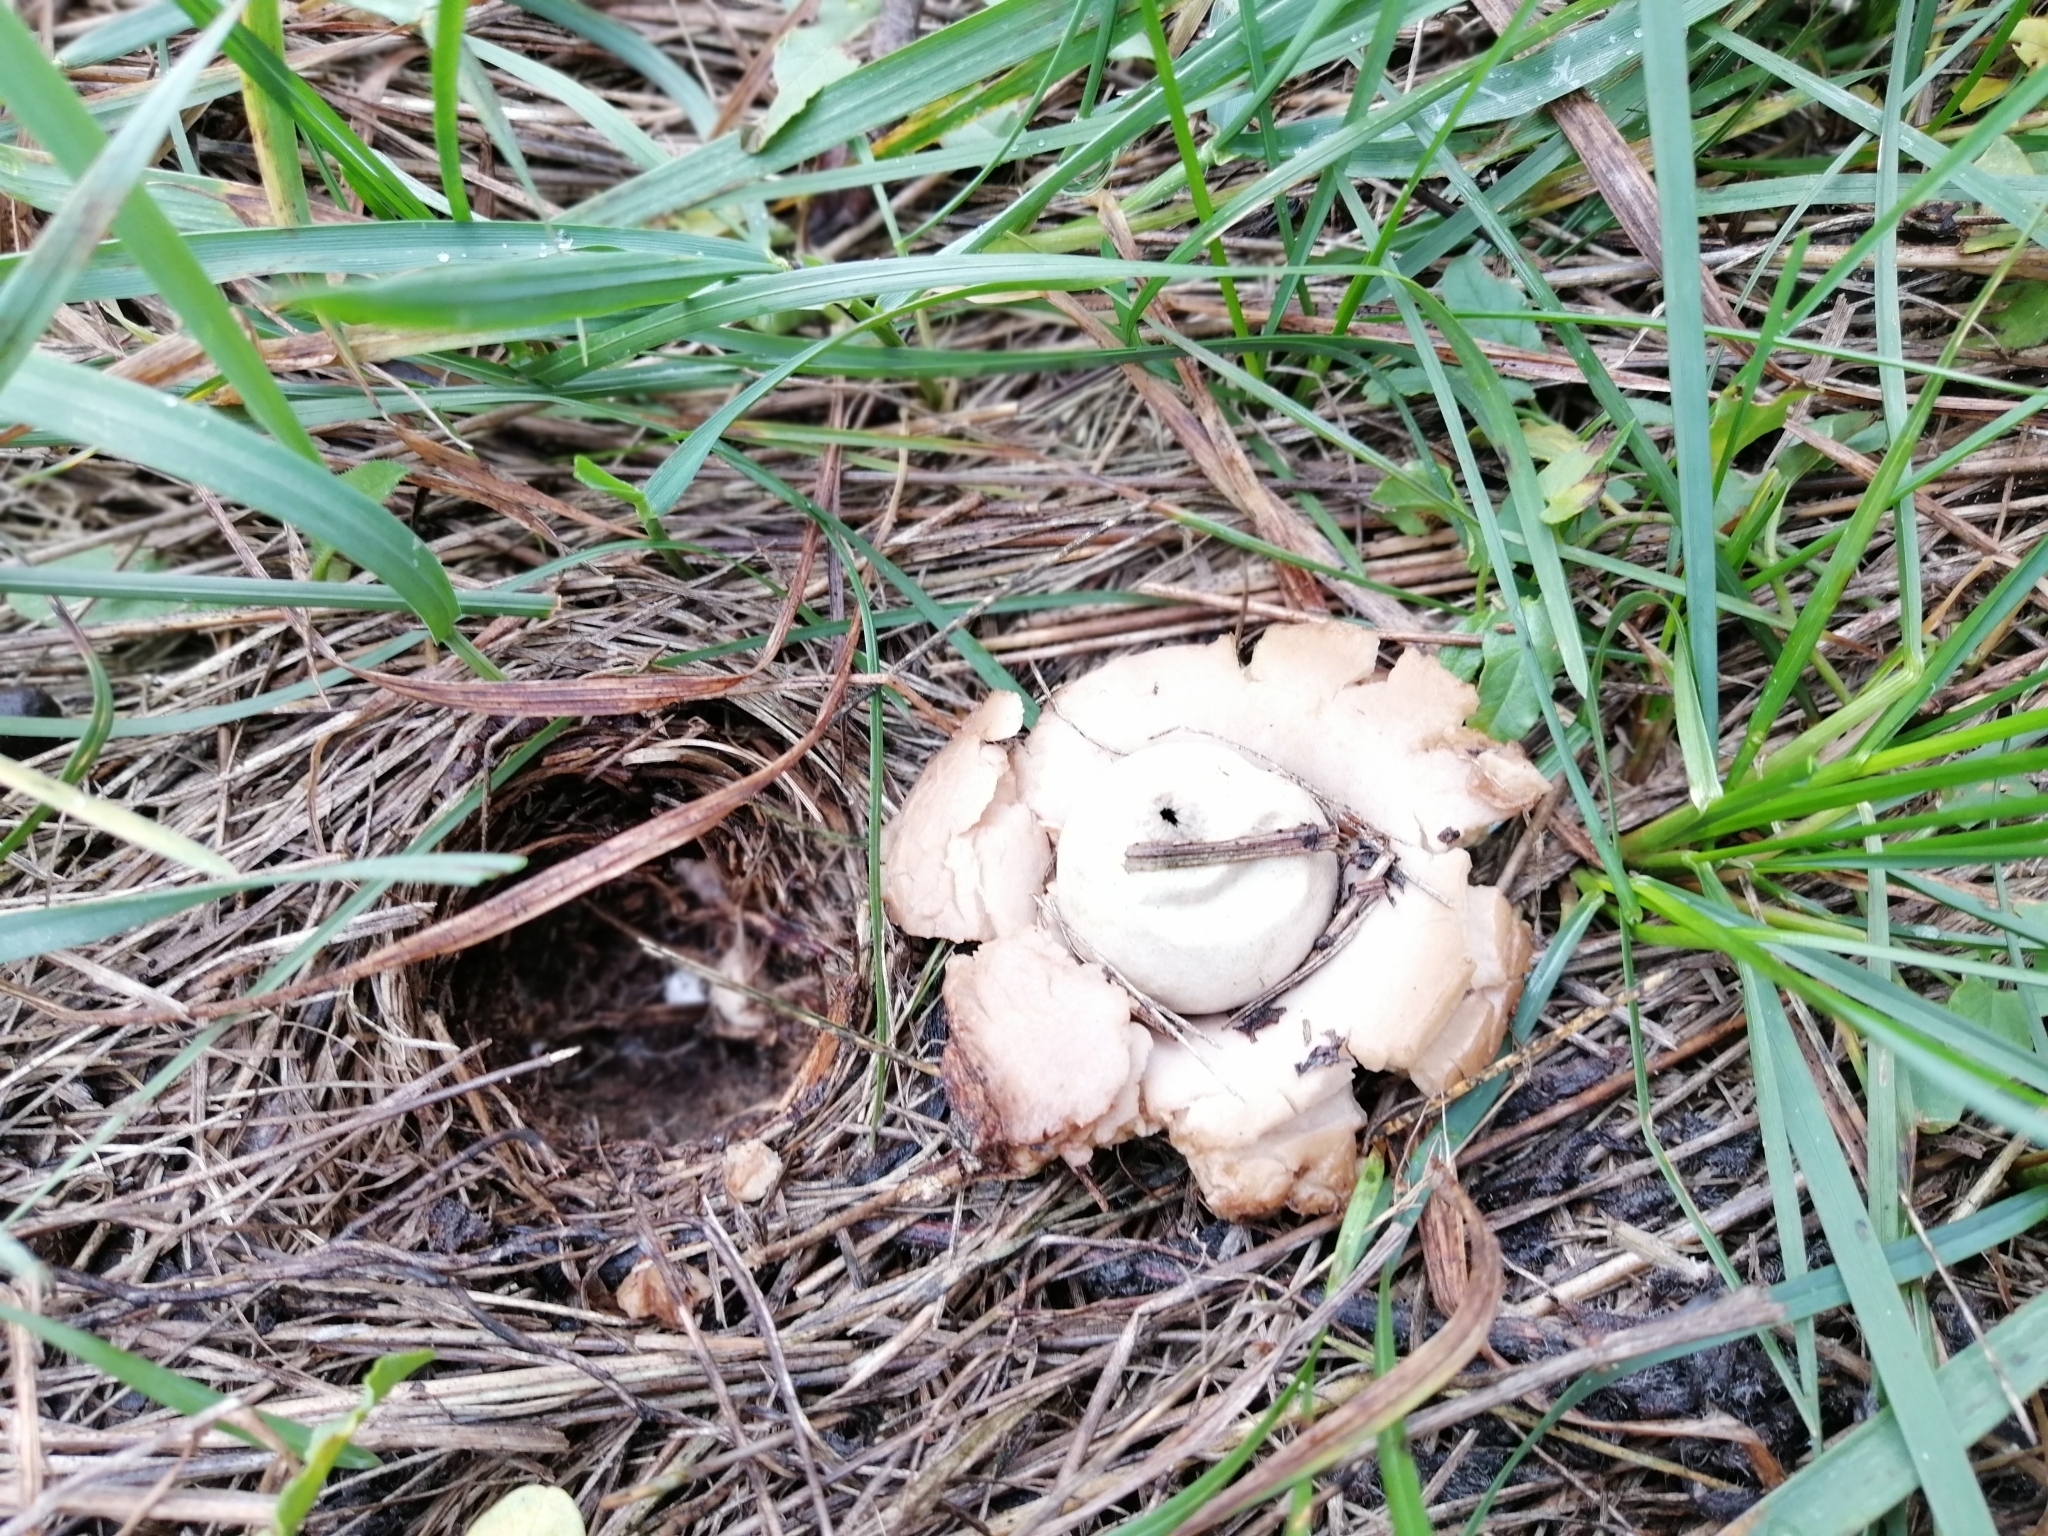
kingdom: Fungi
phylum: Basidiomycota
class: Agaricomycetes
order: Geastrales
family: Geastraceae
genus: Geastrum
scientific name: Geastrum saccatum
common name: Rounded earthstar
